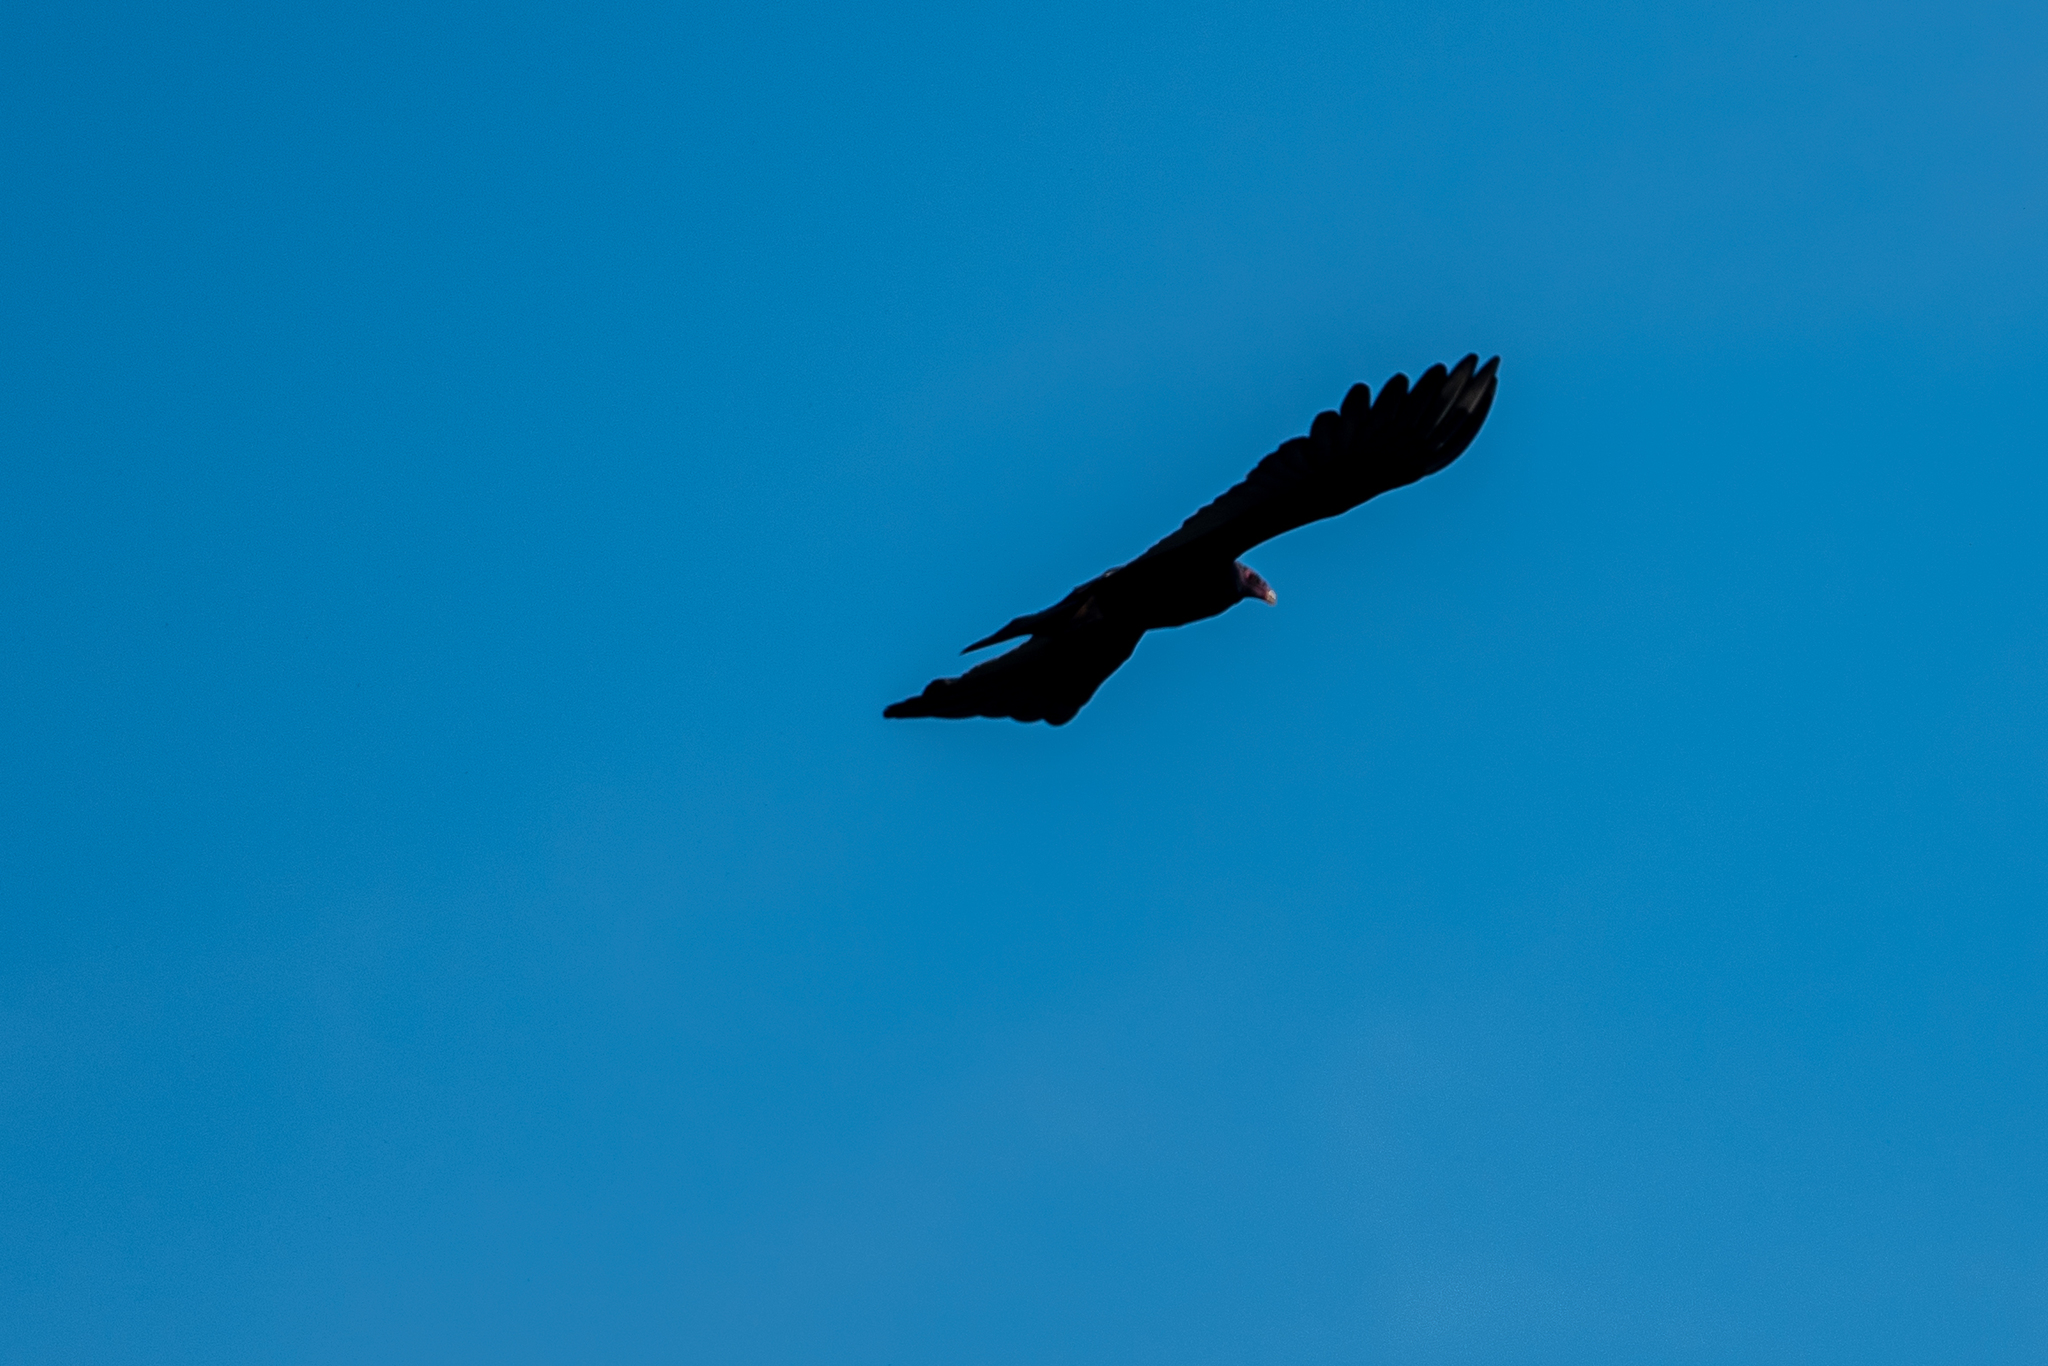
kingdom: Animalia
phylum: Chordata
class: Aves
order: Accipitriformes
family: Cathartidae
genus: Cathartes
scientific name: Cathartes aura
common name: Turkey vulture
